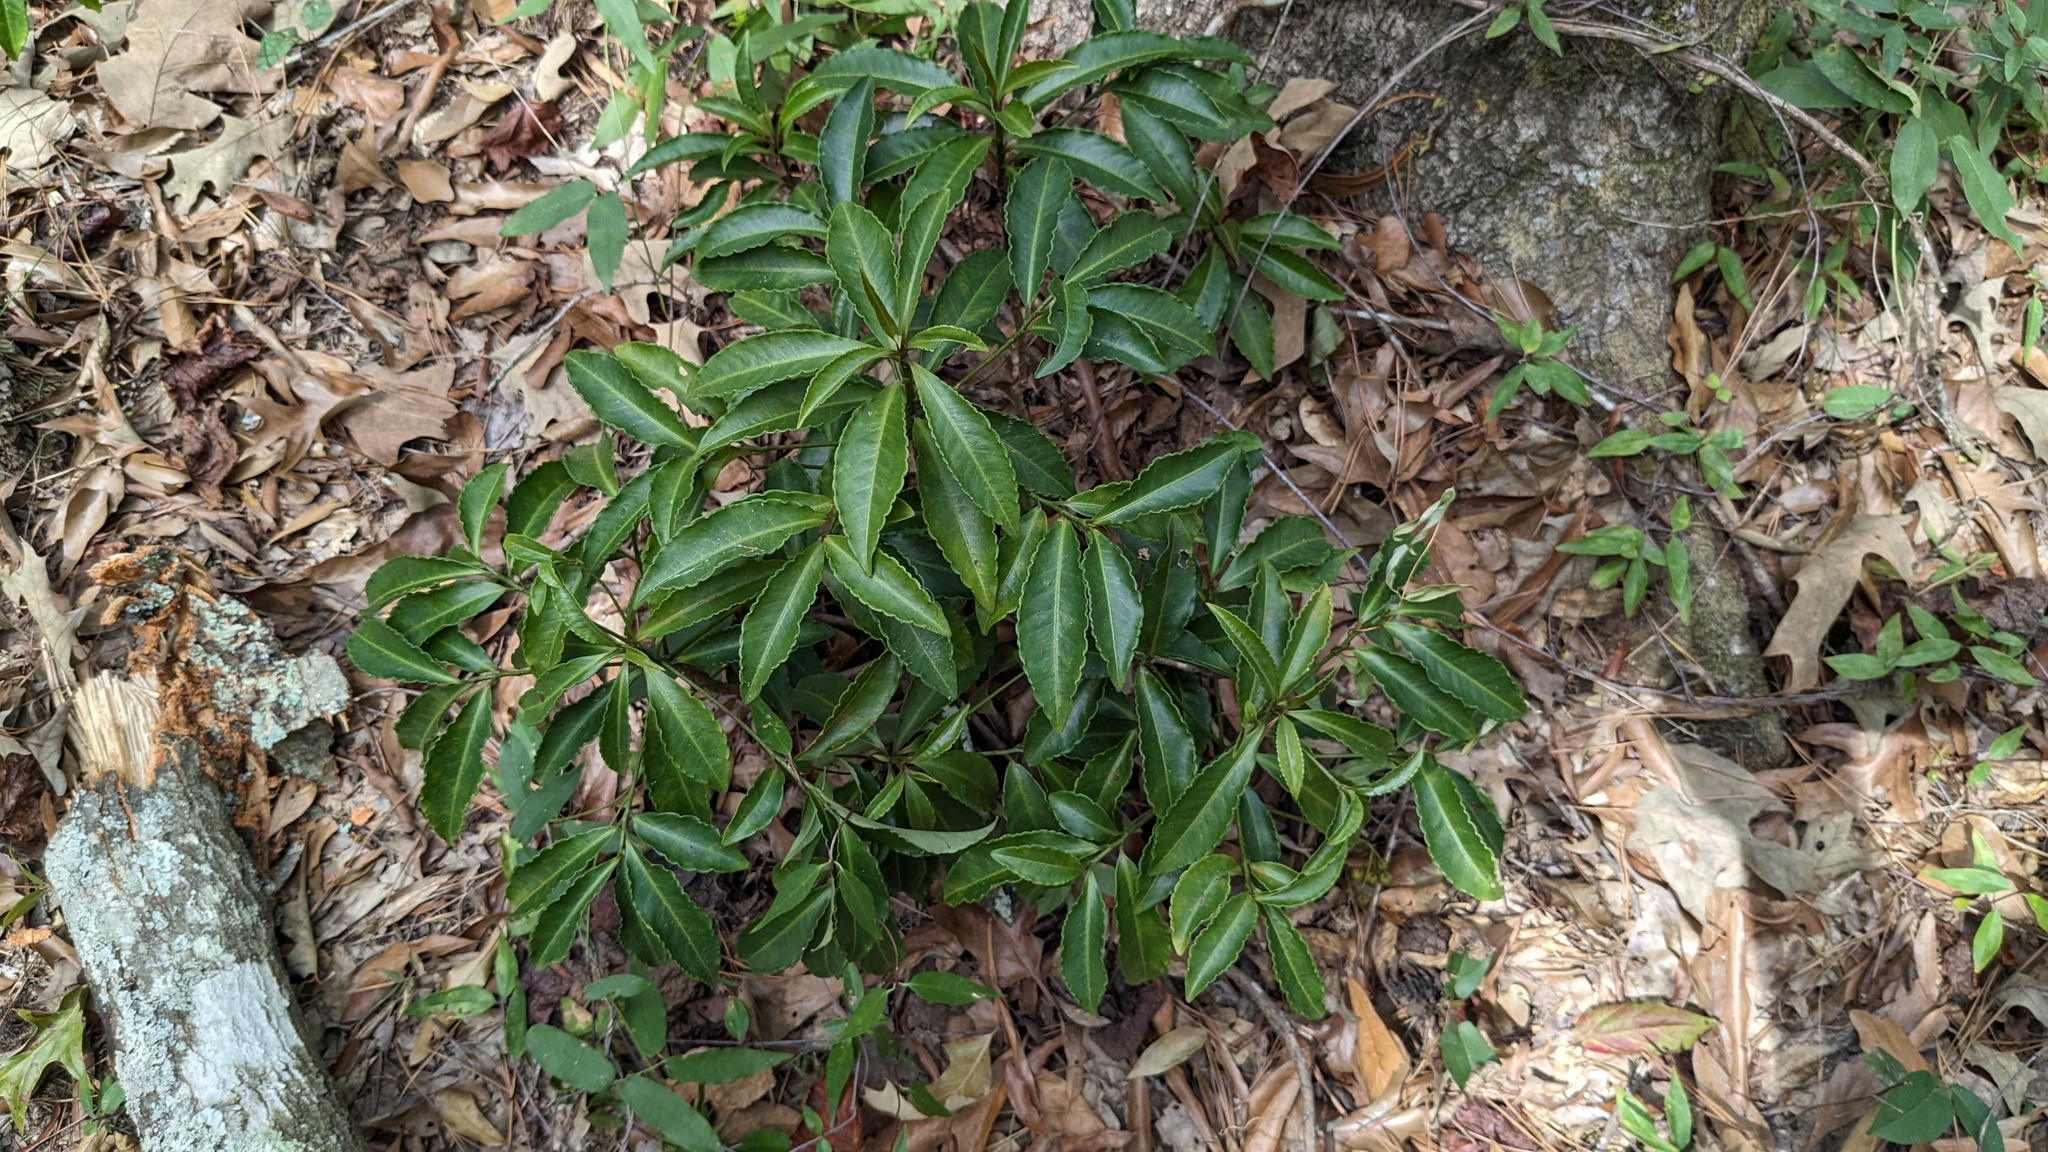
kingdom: Plantae
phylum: Tracheophyta
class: Magnoliopsida
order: Ericales
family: Primulaceae
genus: Ardisia
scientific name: Ardisia crenata
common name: Hen's eyes
